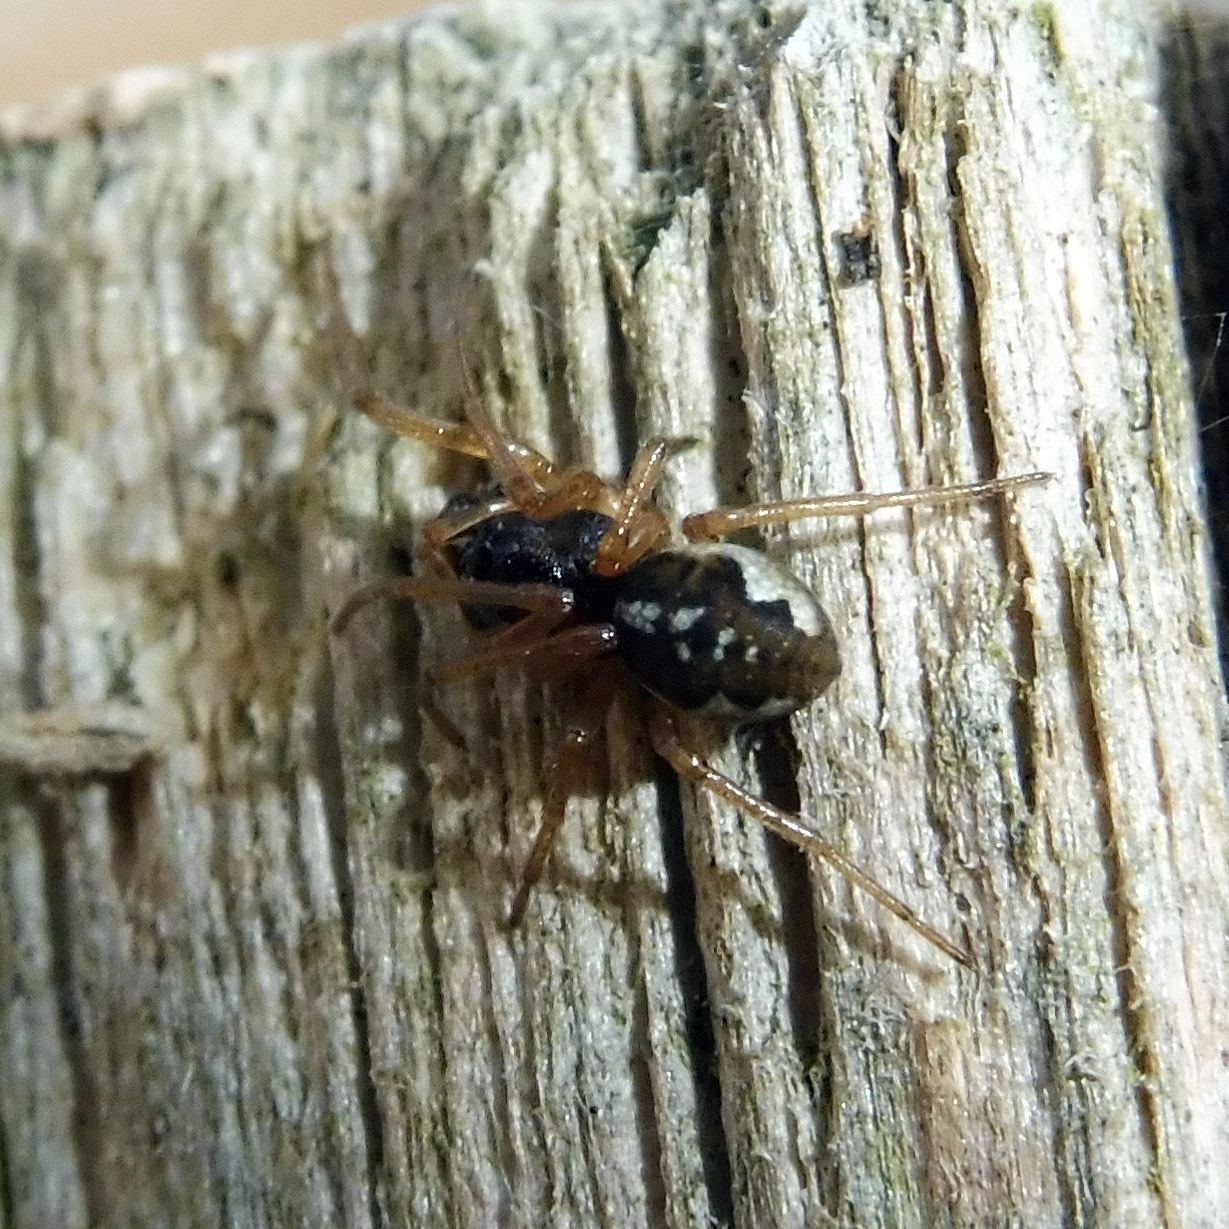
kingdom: Animalia
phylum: Arthropoda
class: Arachnida
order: Araneae
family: Tetragnathidae
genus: Pachygnatha
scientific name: Pachygnatha degeeri
